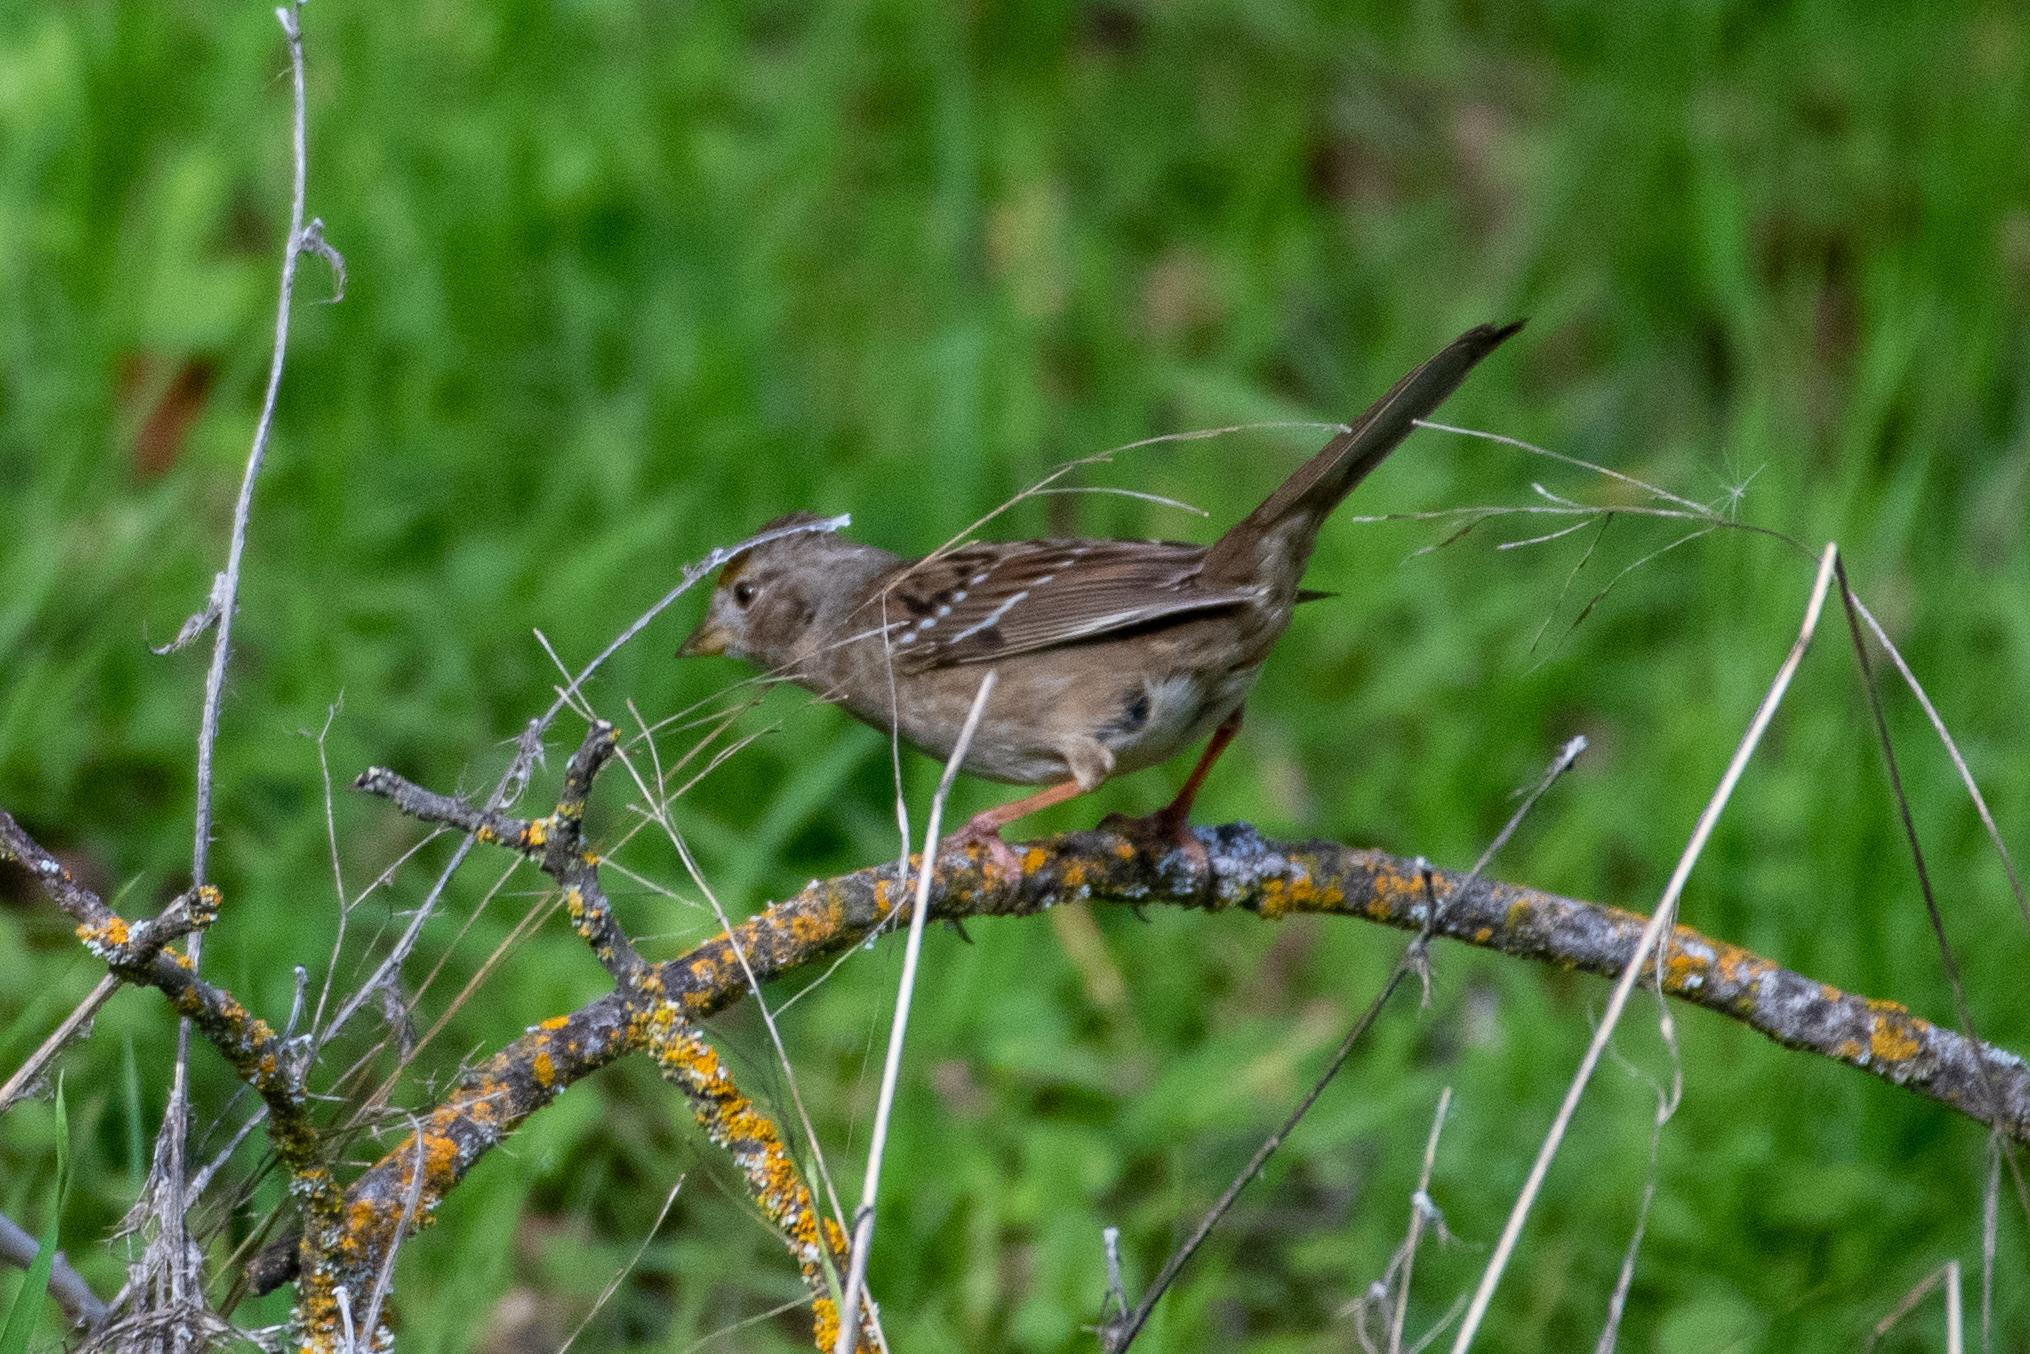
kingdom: Animalia
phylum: Chordata
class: Aves
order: Passeriformes
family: Passerellidae
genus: Zonotrichia
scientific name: Zonotrichia atricapilla
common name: Golden-crowned sparrow
